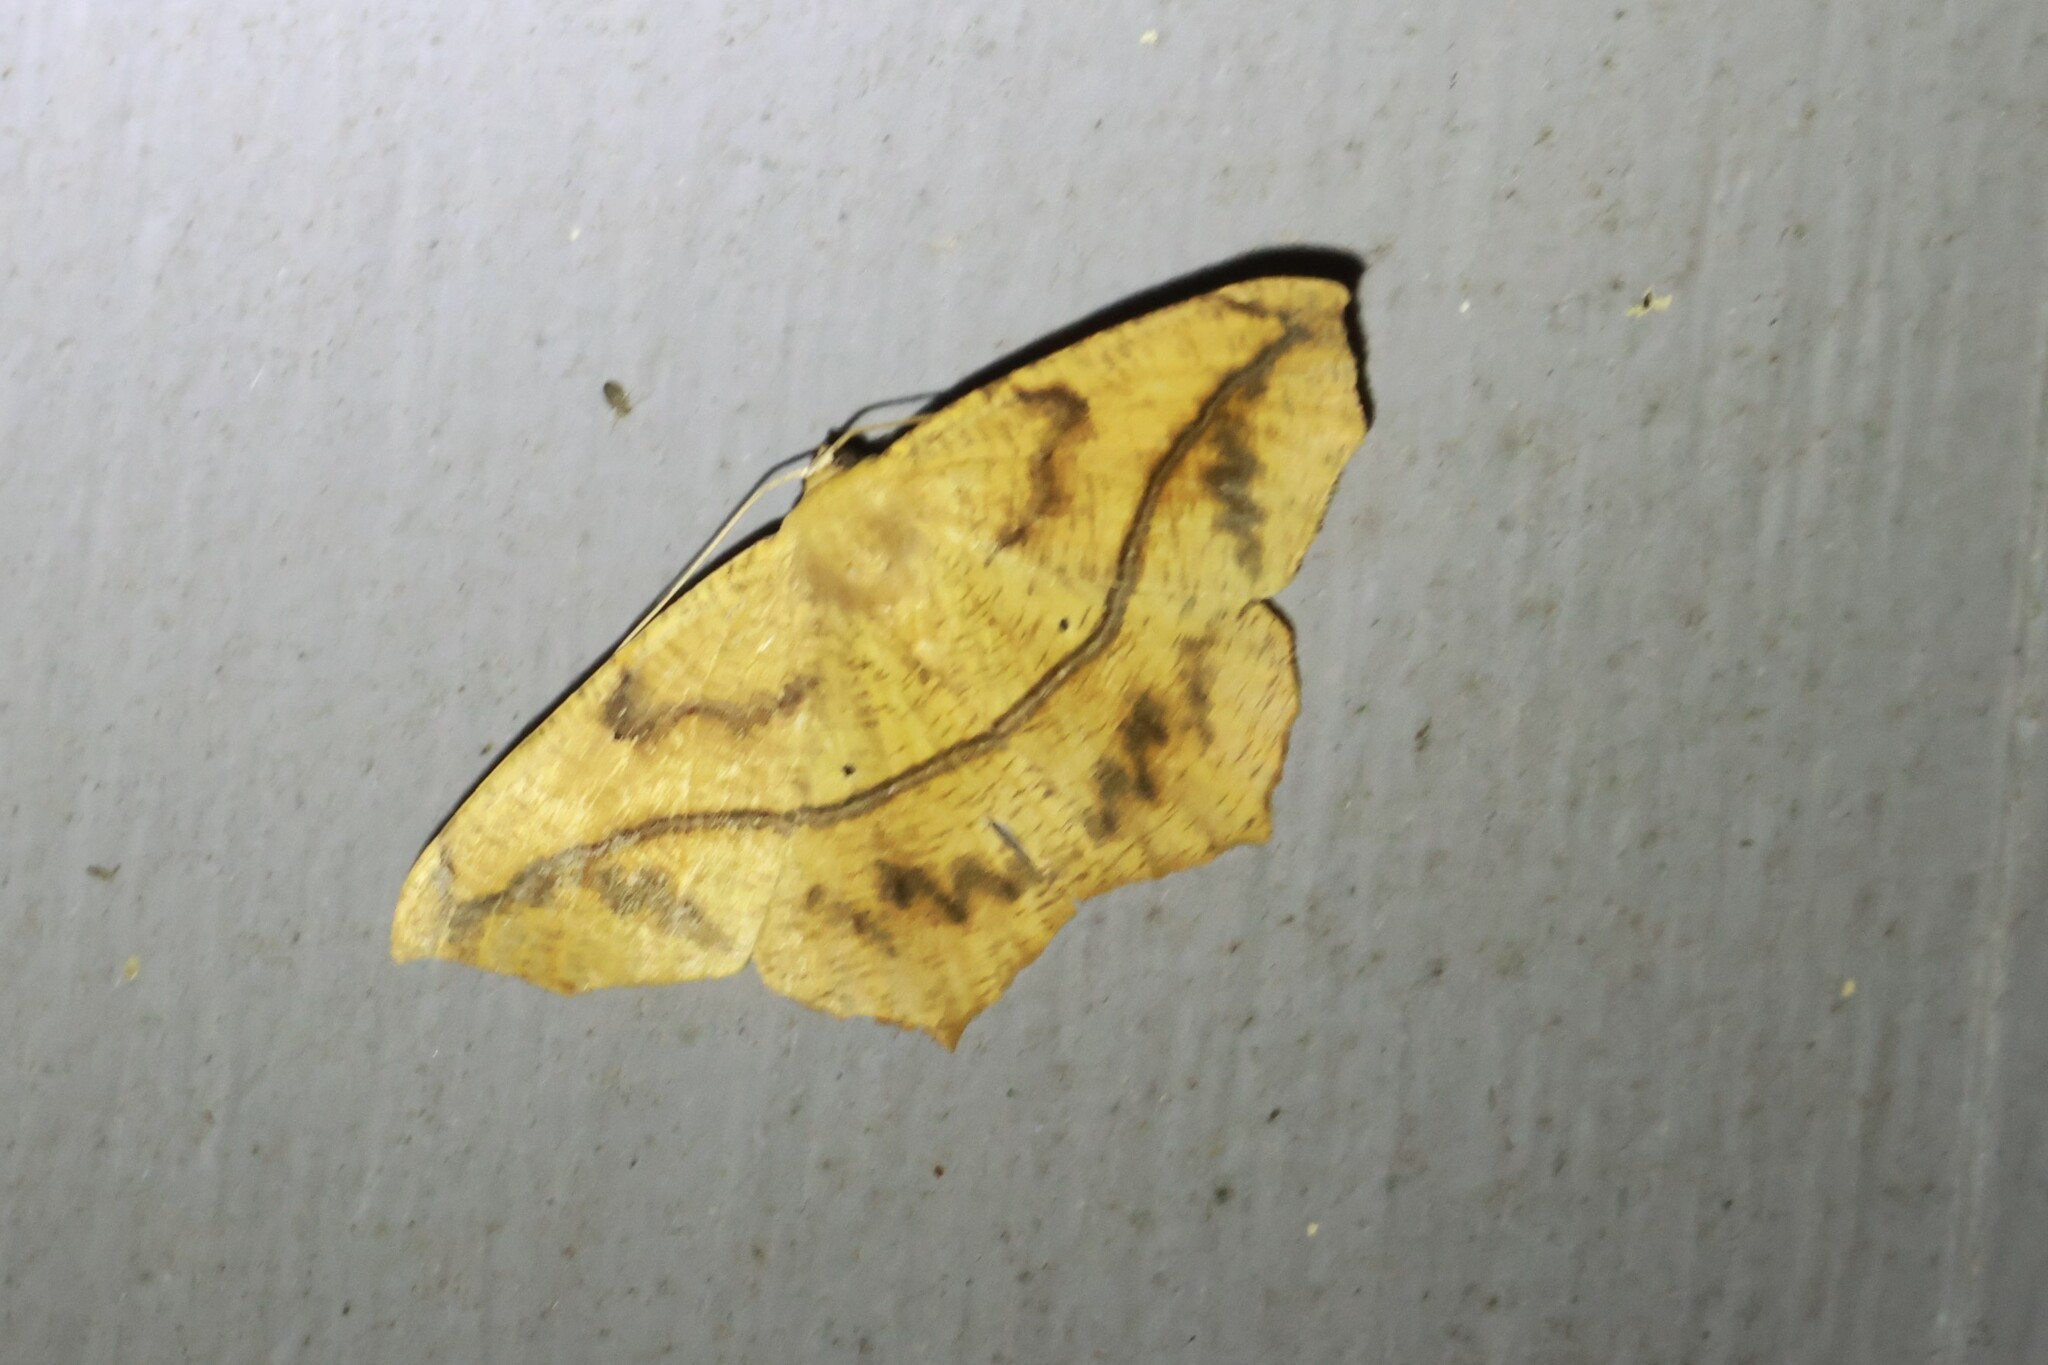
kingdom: Animalia
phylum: Arthropoda
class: Insecta
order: Lepidoptera
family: Geometridae
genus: Prochoerodes
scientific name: Prochoerodes lineola
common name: Large maple spanworm
